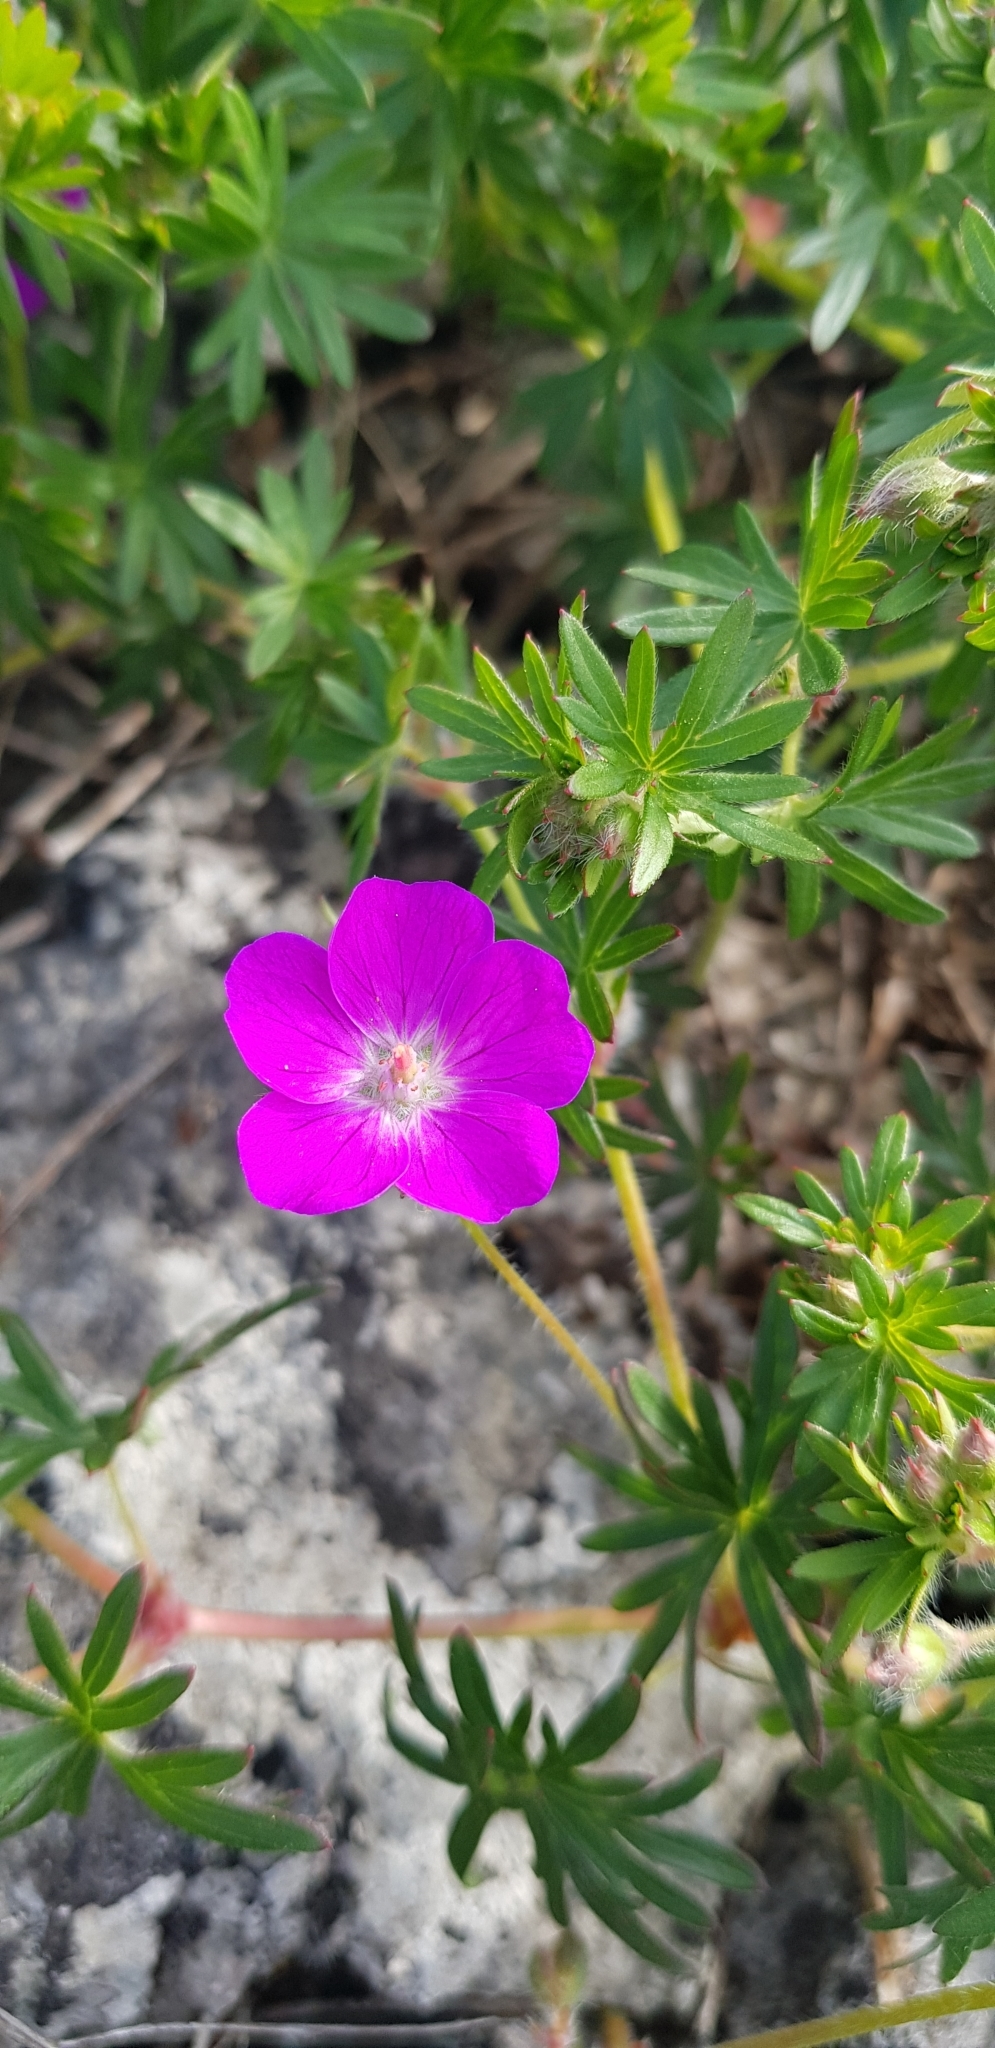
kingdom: Plantae
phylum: Tracheophyta
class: Magnoliopsida
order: Geraniales
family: Geraniaceae
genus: Geranium
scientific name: Geranium sanguineum
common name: Bloody crane's-bill
